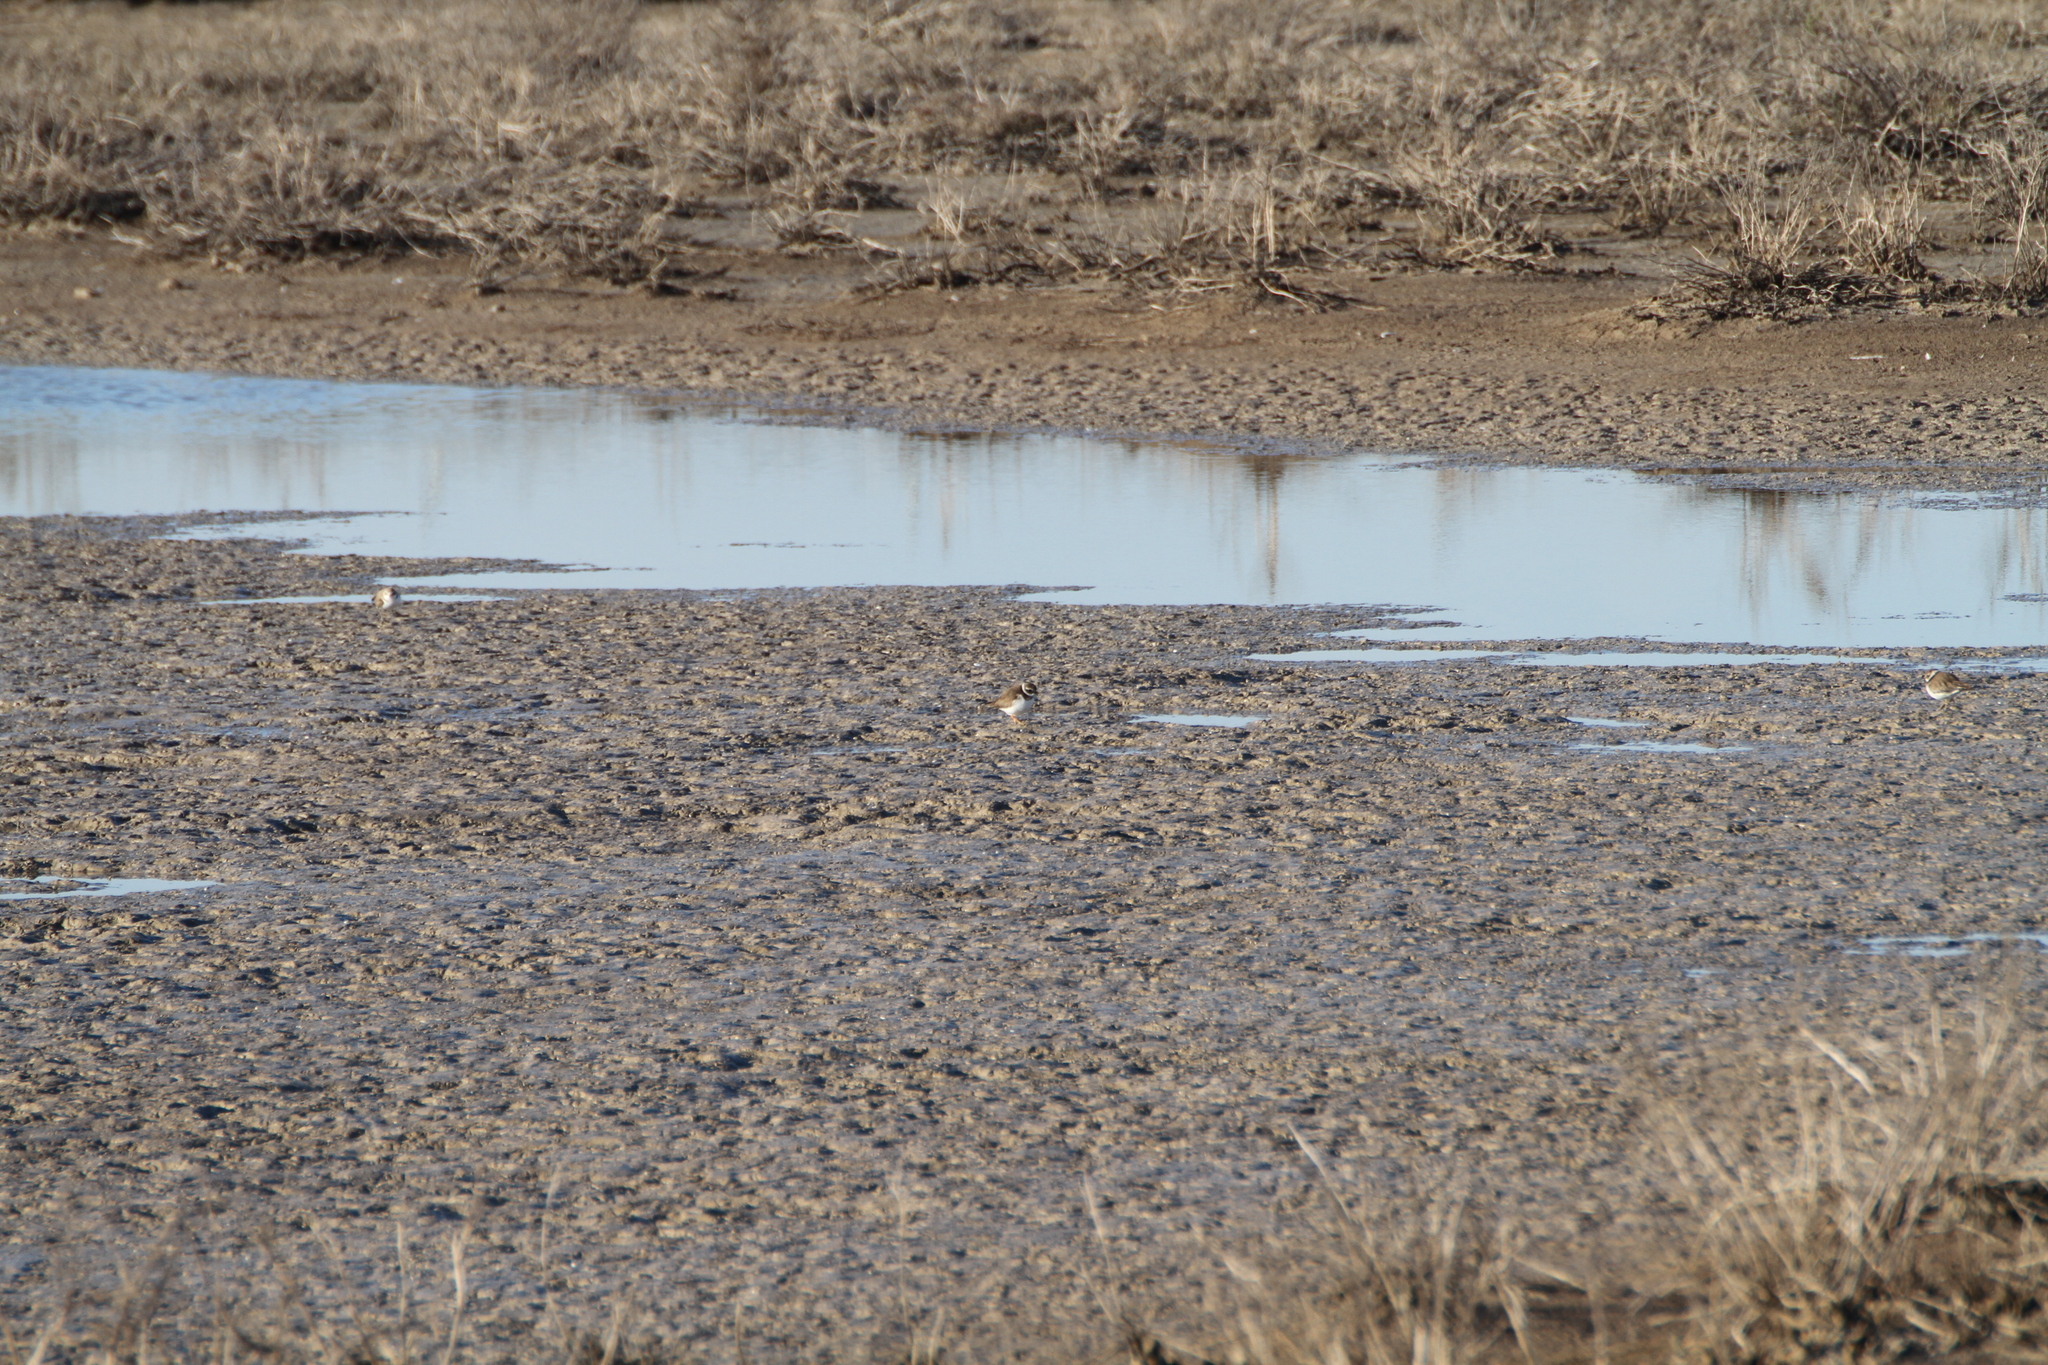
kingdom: Animalia
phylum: Chordata
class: Aves
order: Charadriiformes
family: Charadriidae
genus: Charadrius
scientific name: Charadrius alexandrinus
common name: Kentish plover
